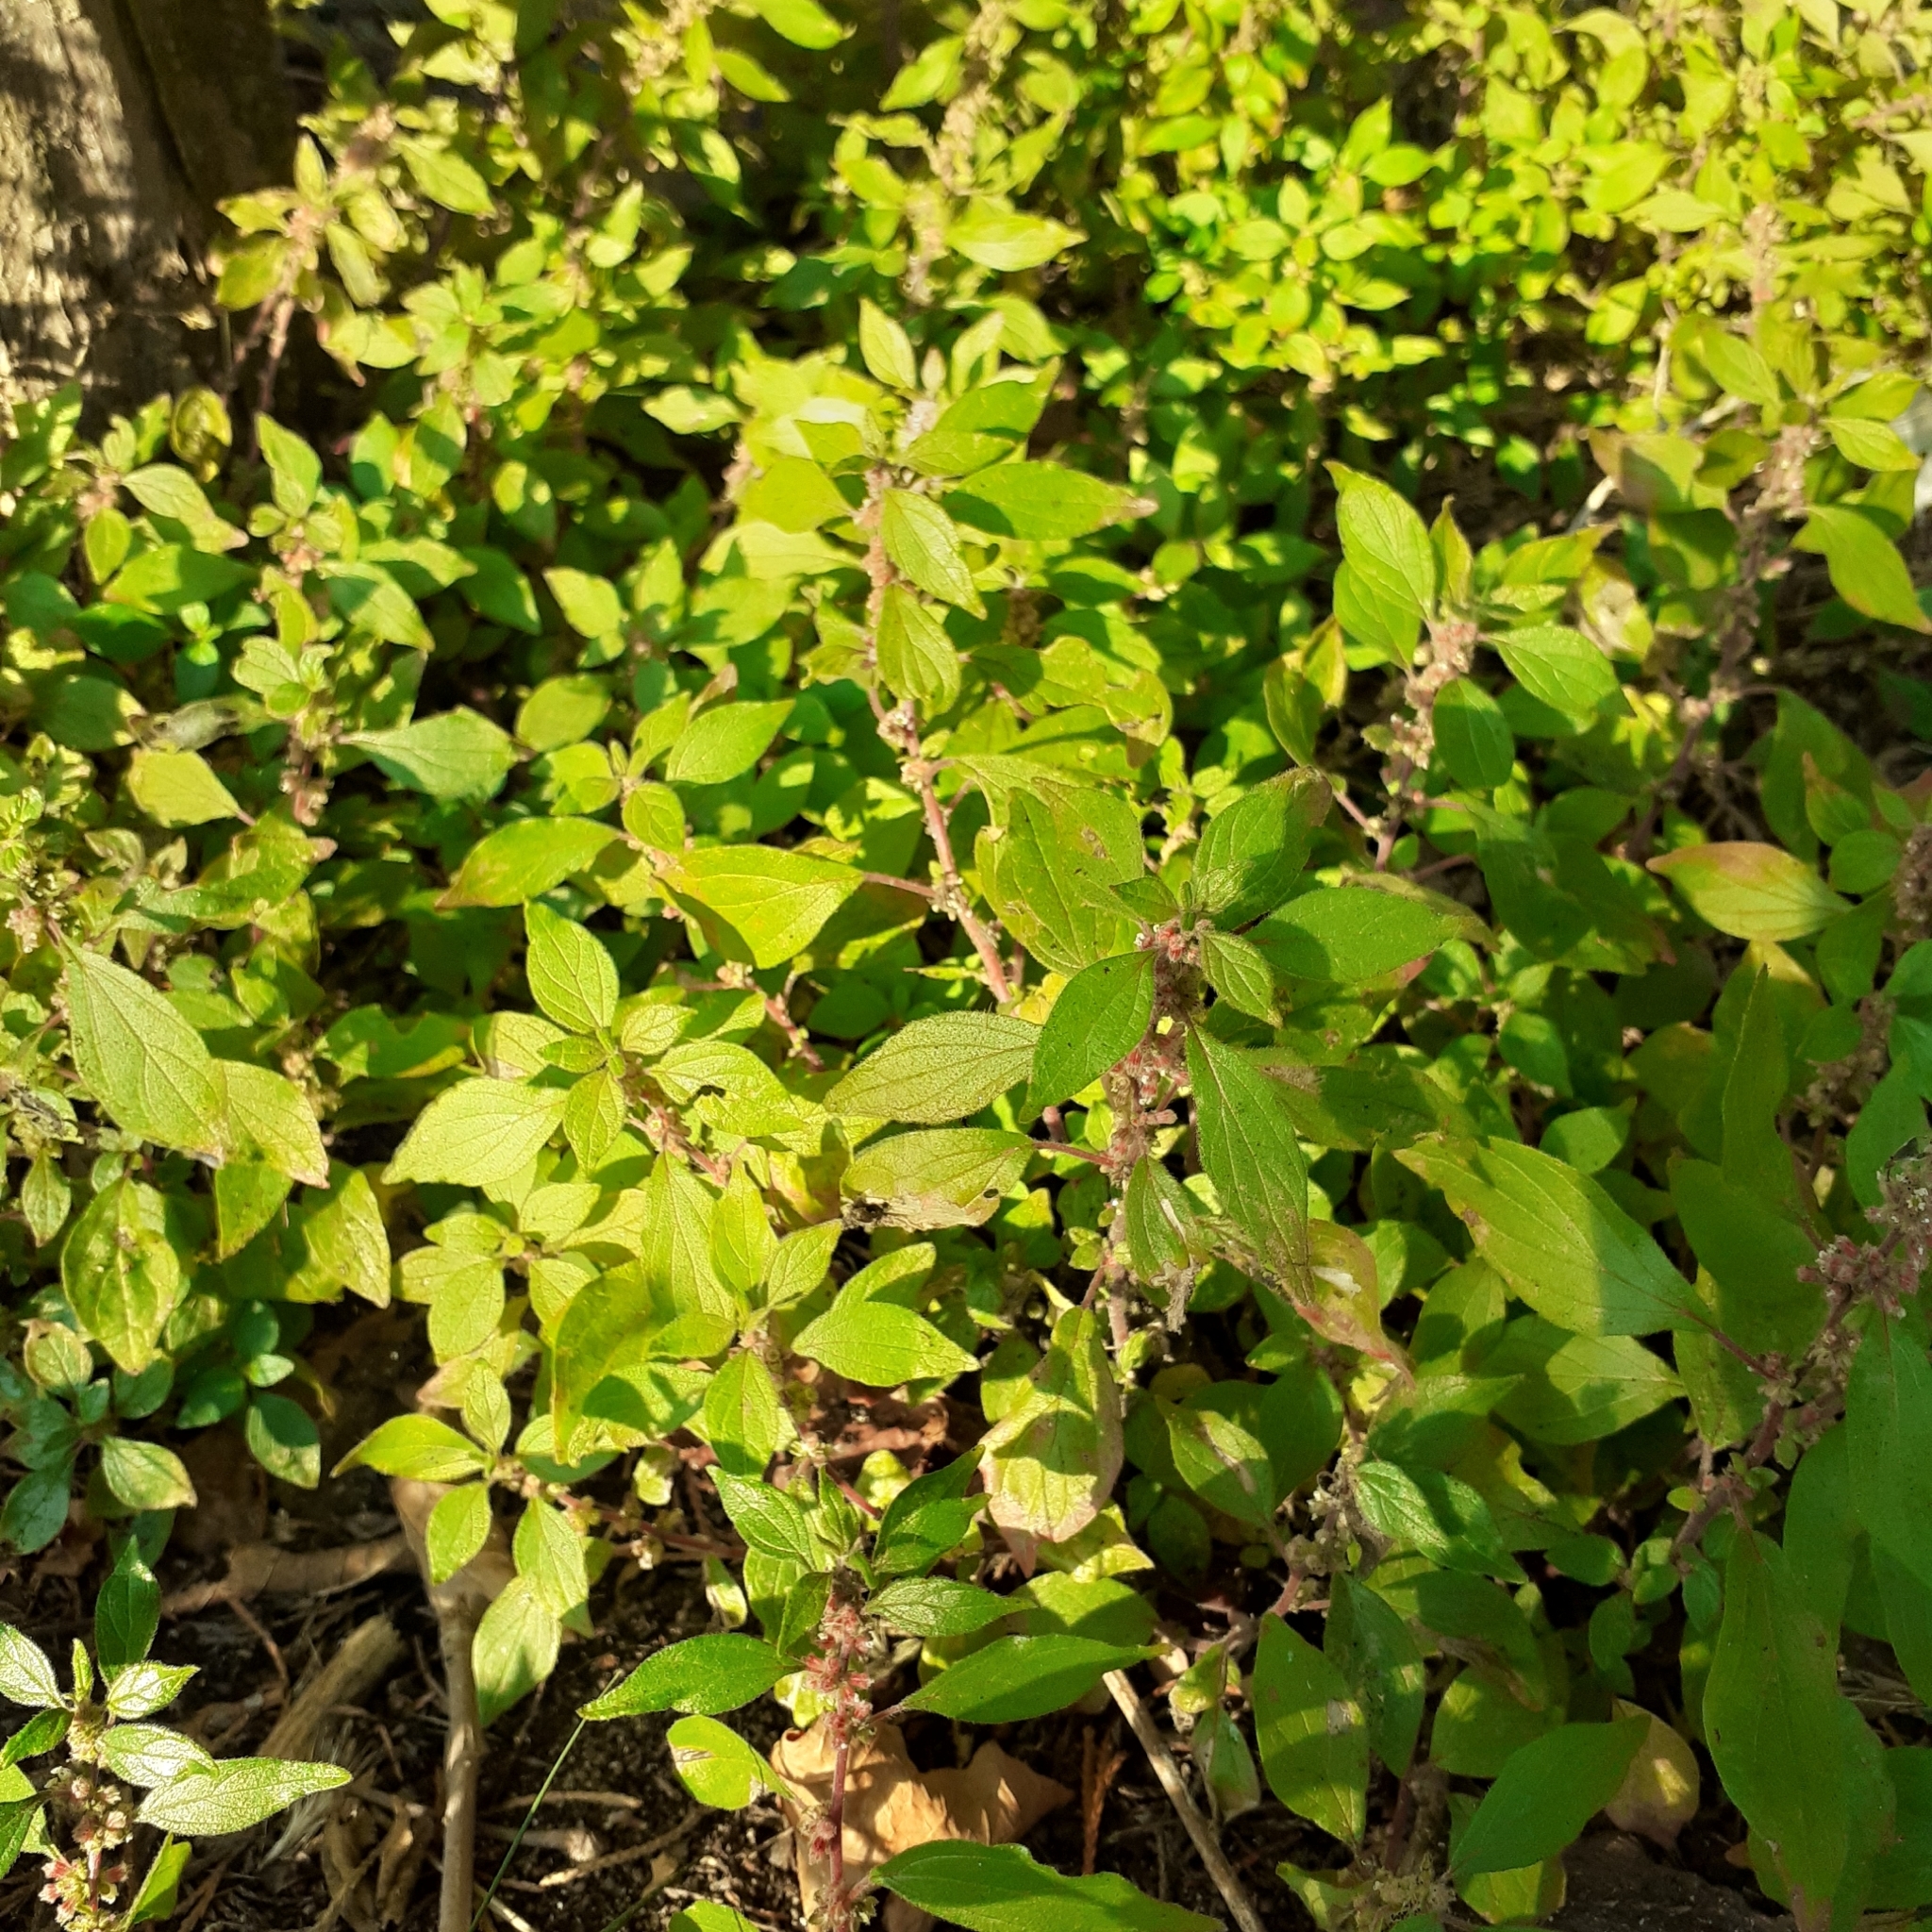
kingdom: Plantae
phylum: Tracheophyta
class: Magnoliopsida
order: Rosales
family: Urticaceae
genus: Parietaria
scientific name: Parietaria judaica
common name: Pellitory-of-the-wall
